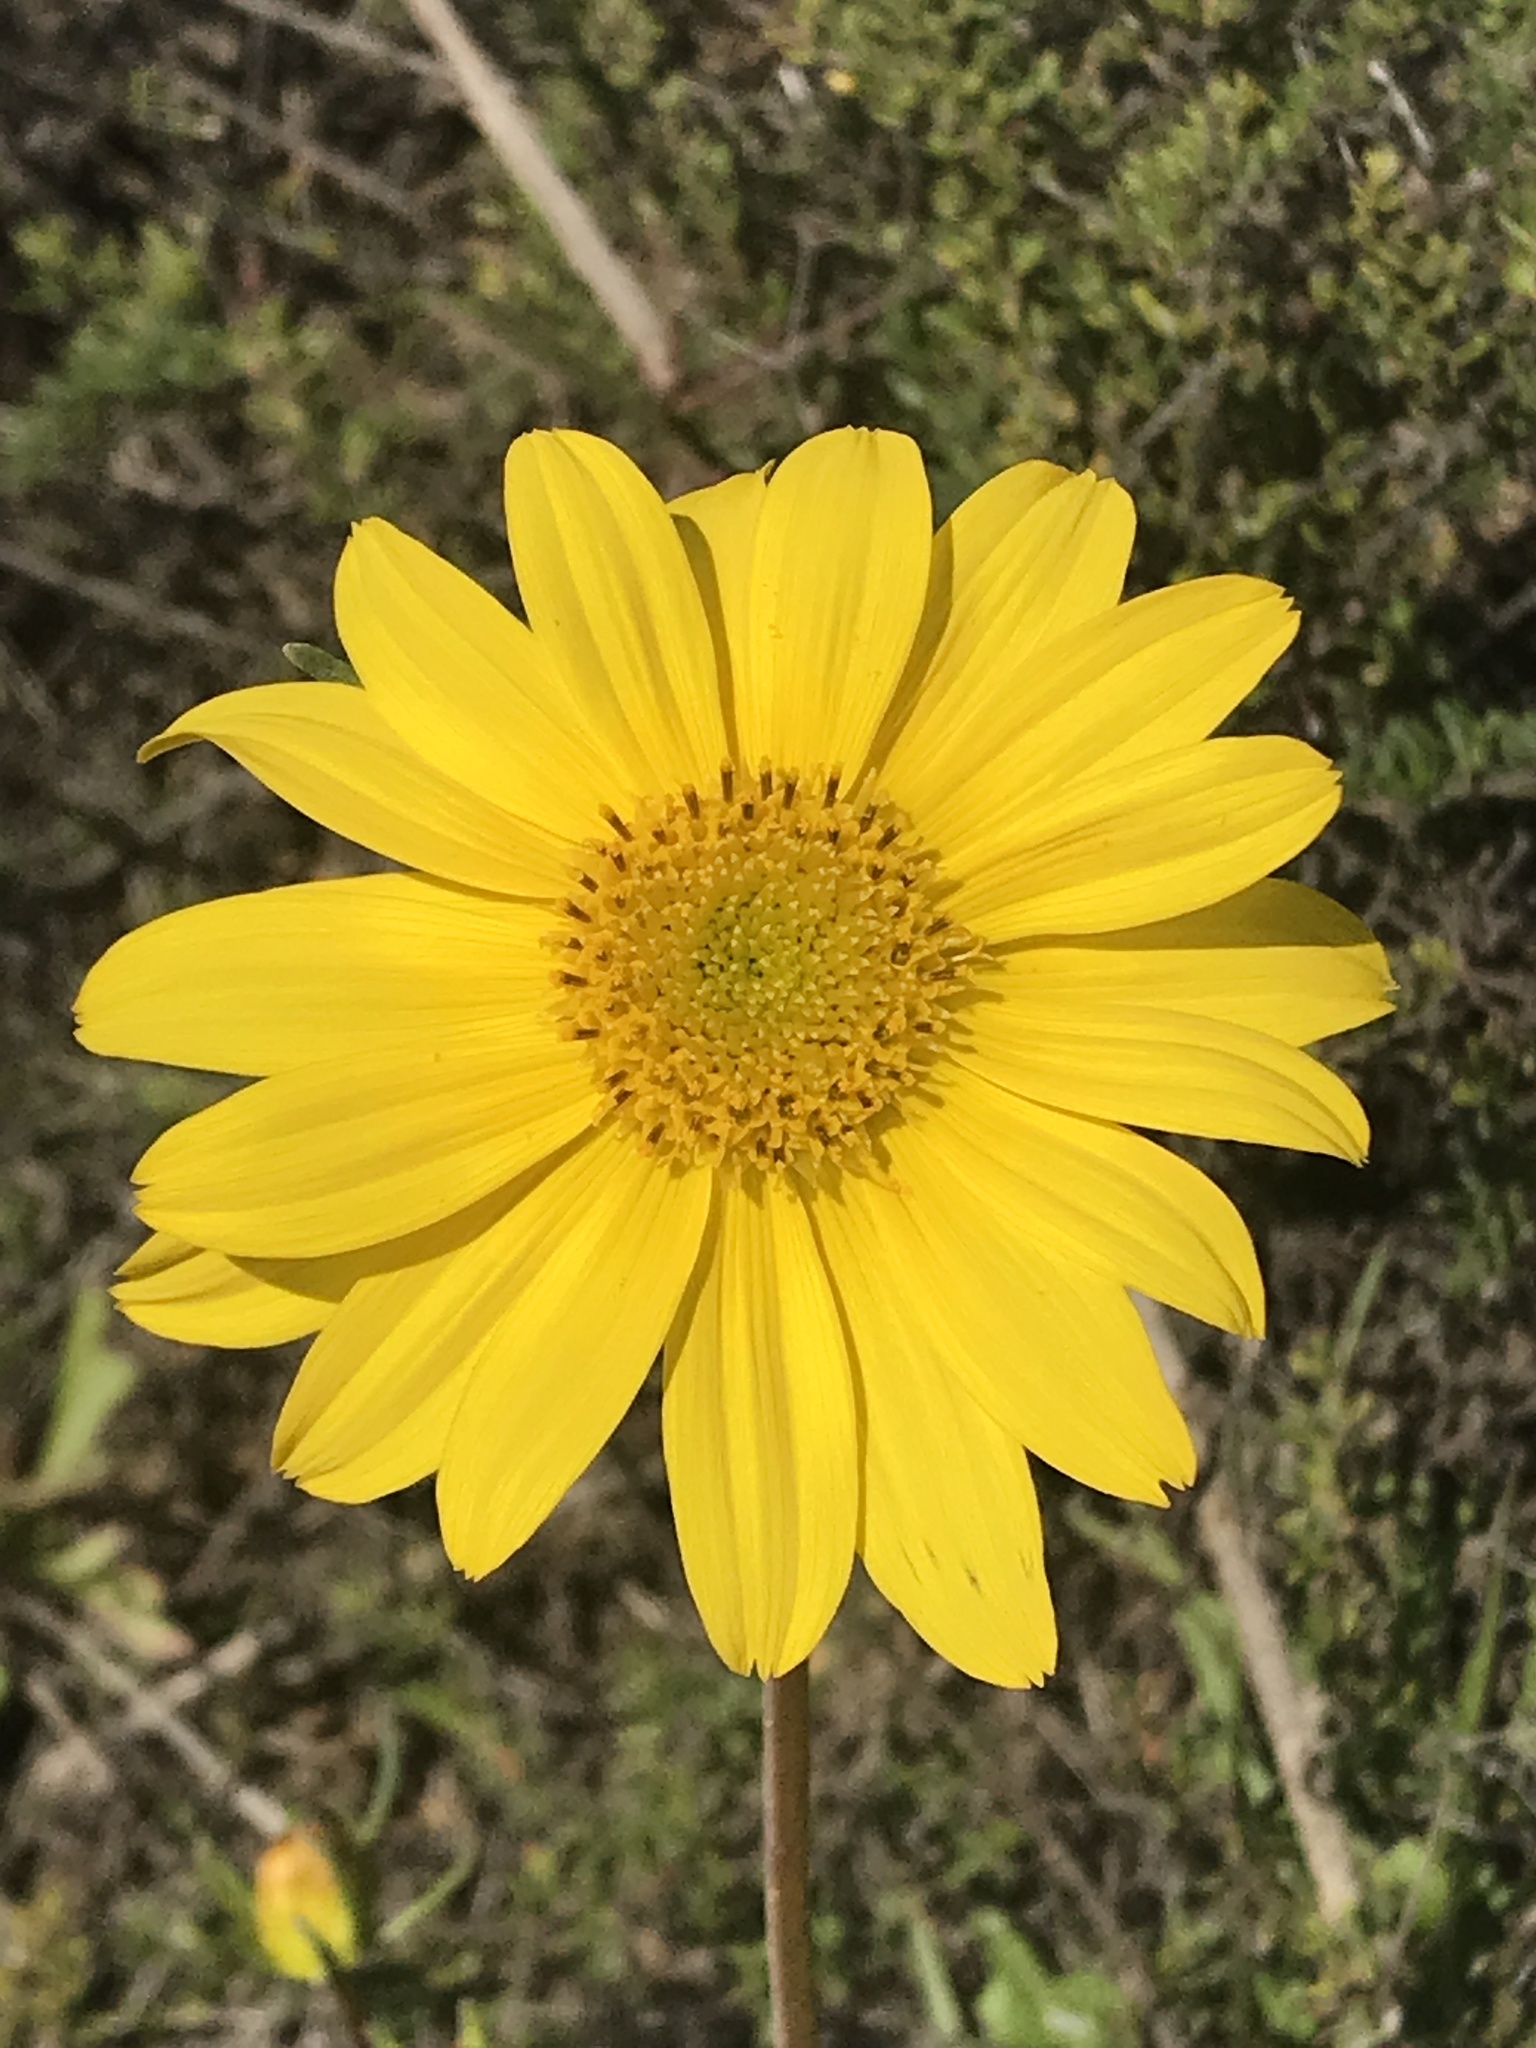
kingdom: Plantae
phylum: Tracheophyta
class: Magnoliopsida
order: Asterales
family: Asteraceae
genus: Coreopsis
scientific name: Coreopsis maritima
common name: Sea-dahlia
